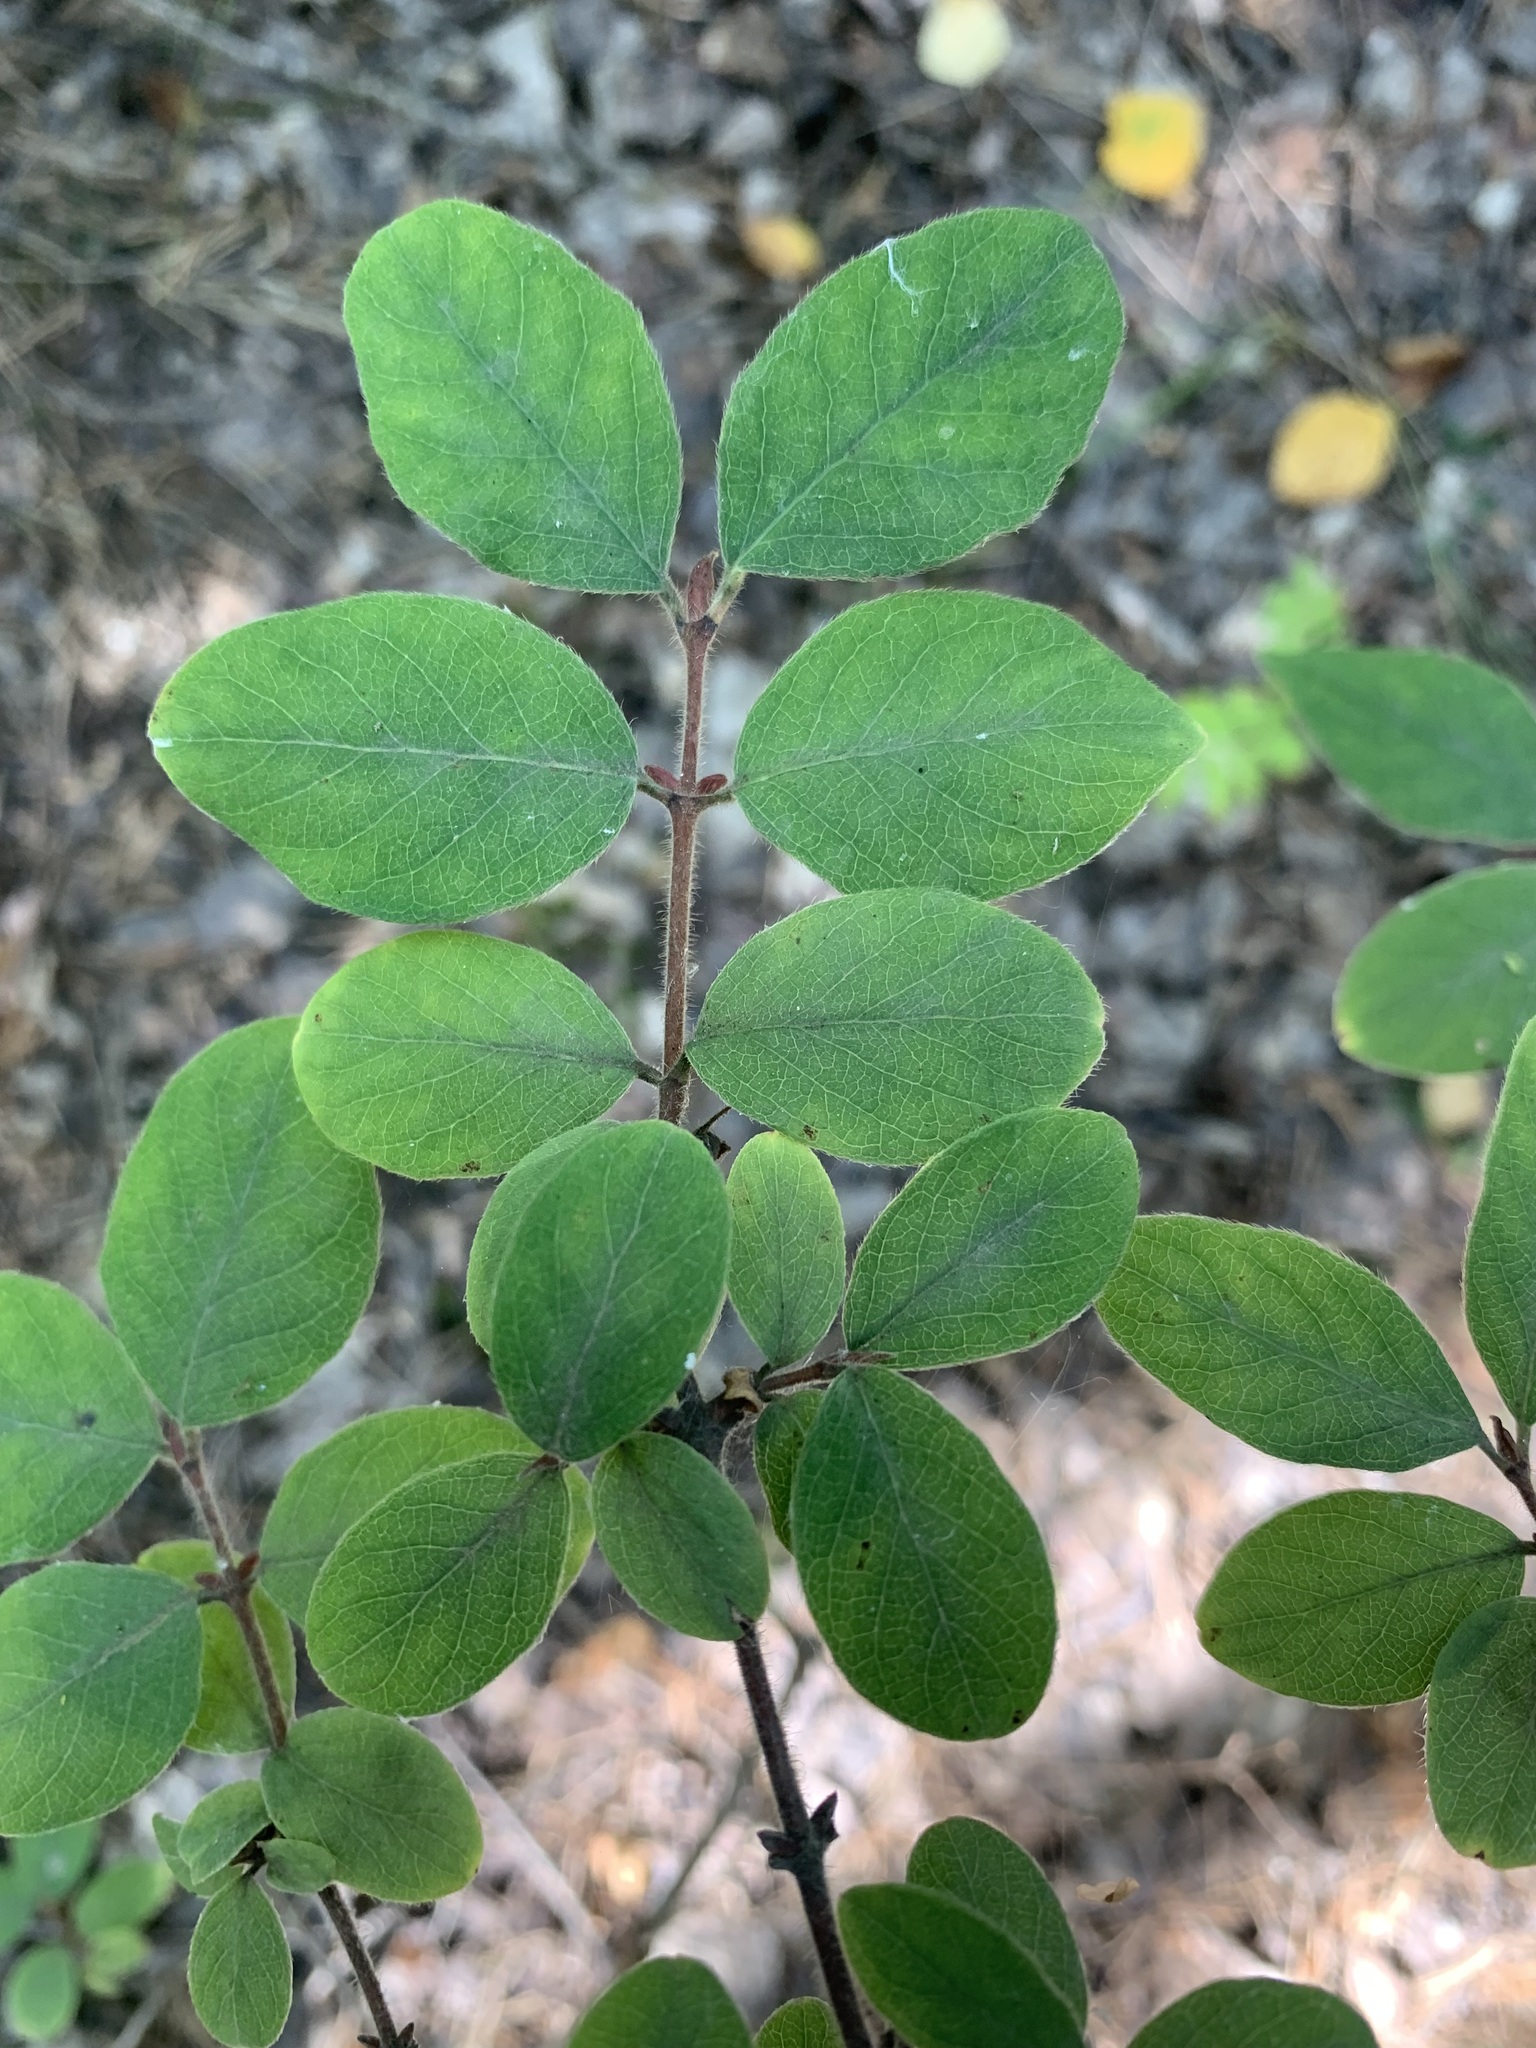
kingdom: Plantae
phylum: Tracheophyta
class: Magnoliopsida
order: Dipsacales
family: Caprifoliaceae
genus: Lonicera
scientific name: Lonicera xylosteum
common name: Fly honeysuckle
